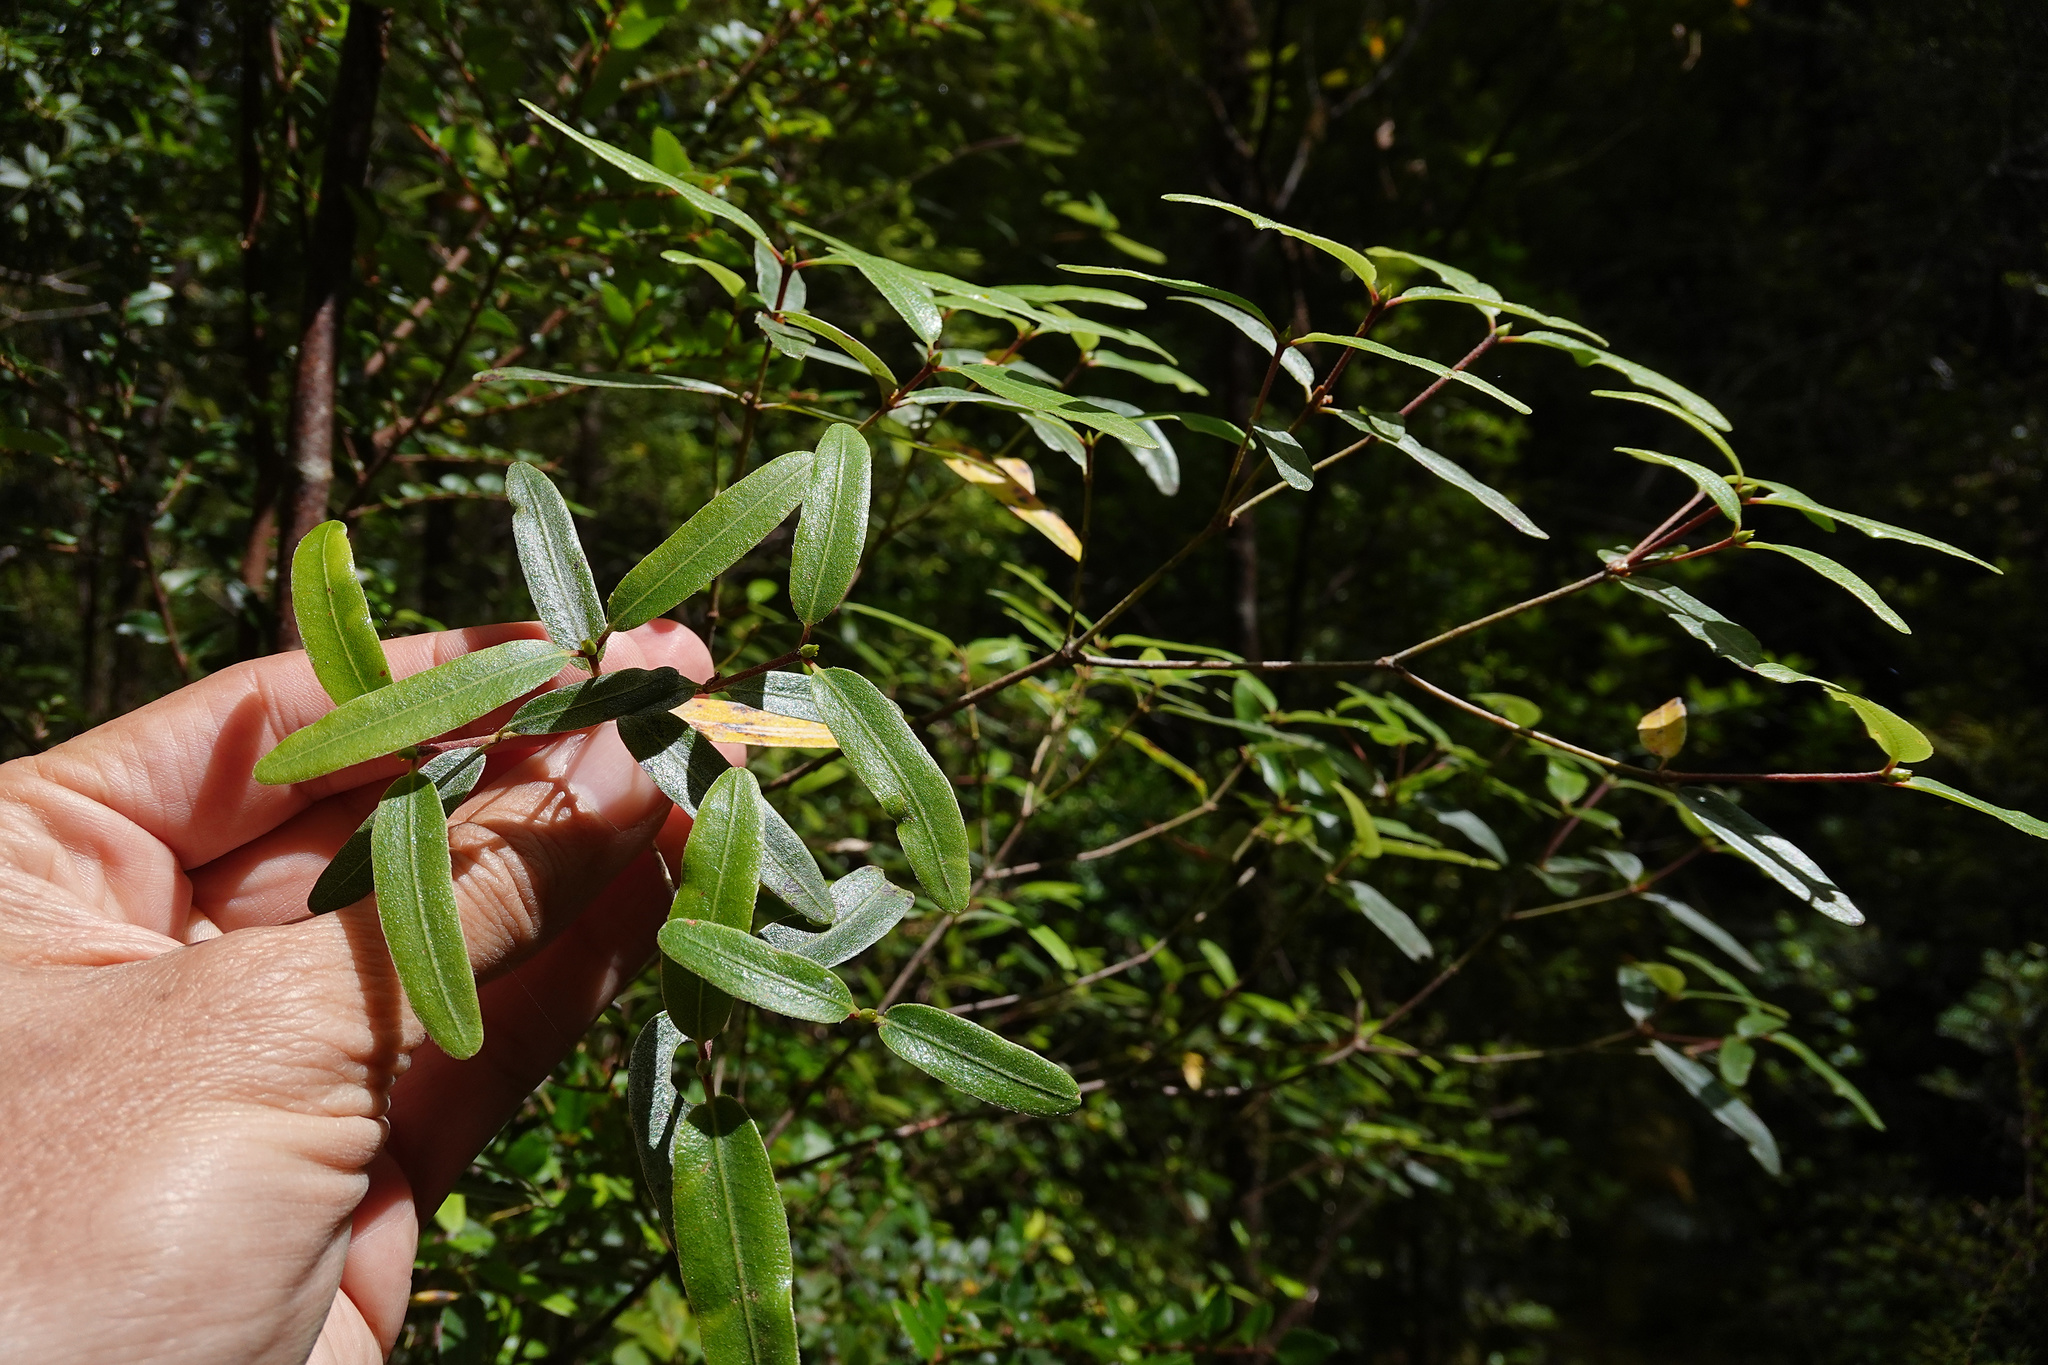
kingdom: Plantae
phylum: Tracheophyta
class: Magnoliopsida
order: Oxalidales
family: Cunoniaceae
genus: Eucryphia
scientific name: Eucryphia lucida
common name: Leatherwood
